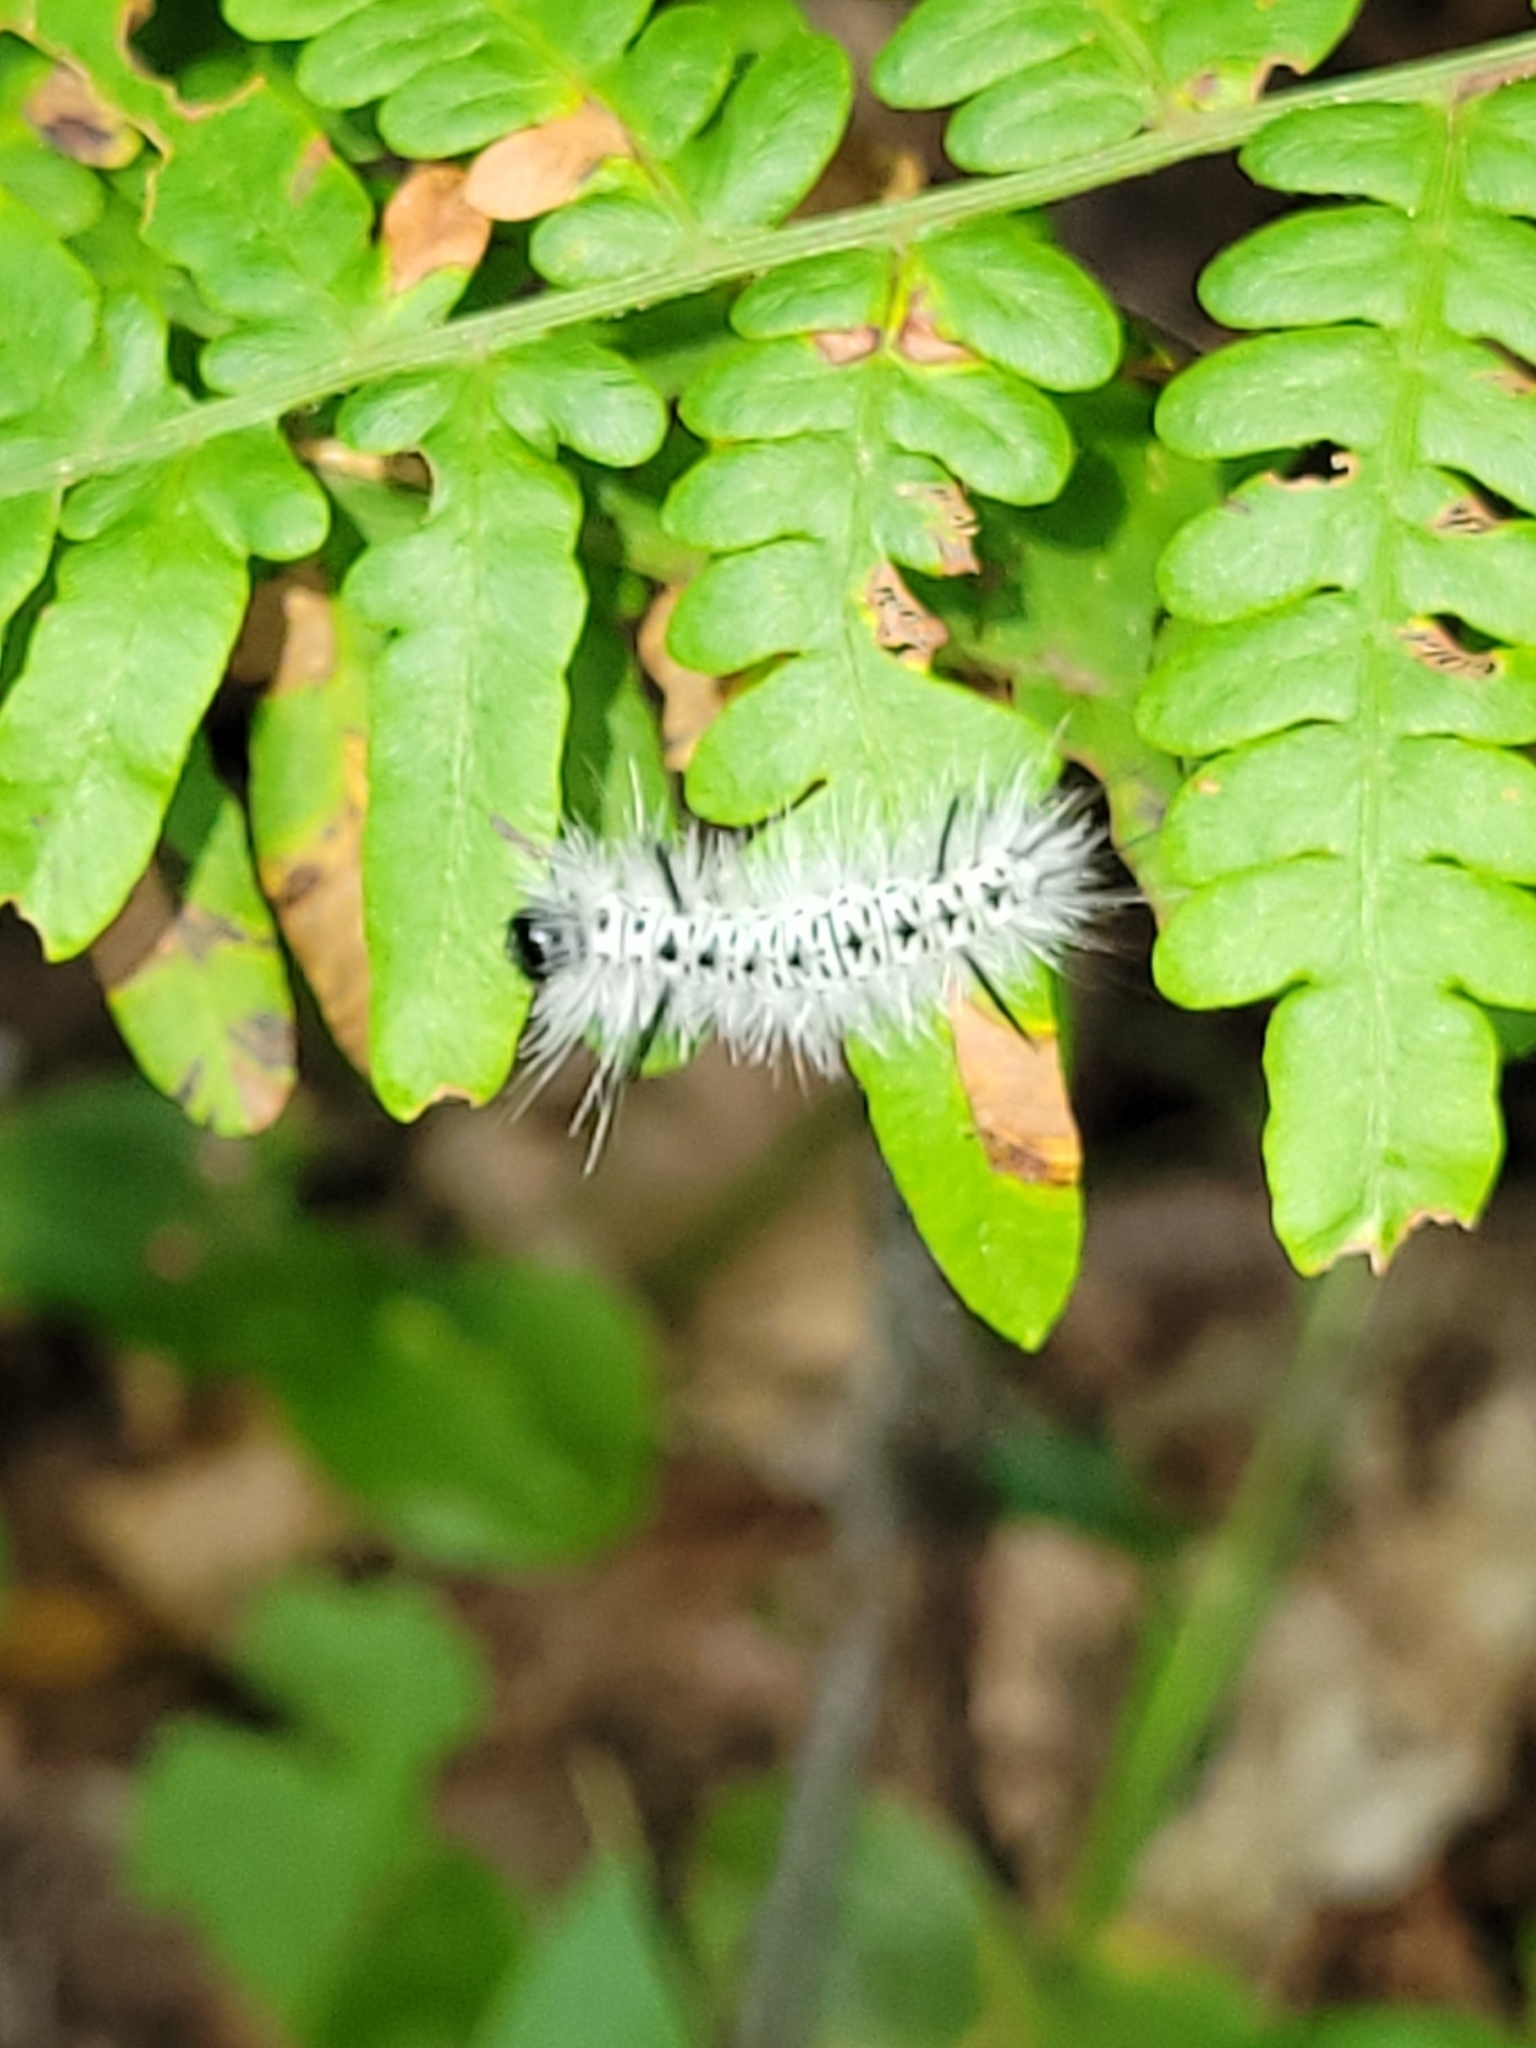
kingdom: Animalia
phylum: Arthropoda
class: Insecta
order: Lepidoptera
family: Erebidae
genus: Lophocampa
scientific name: Lophocampa caryae
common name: Hickory tussock moth
